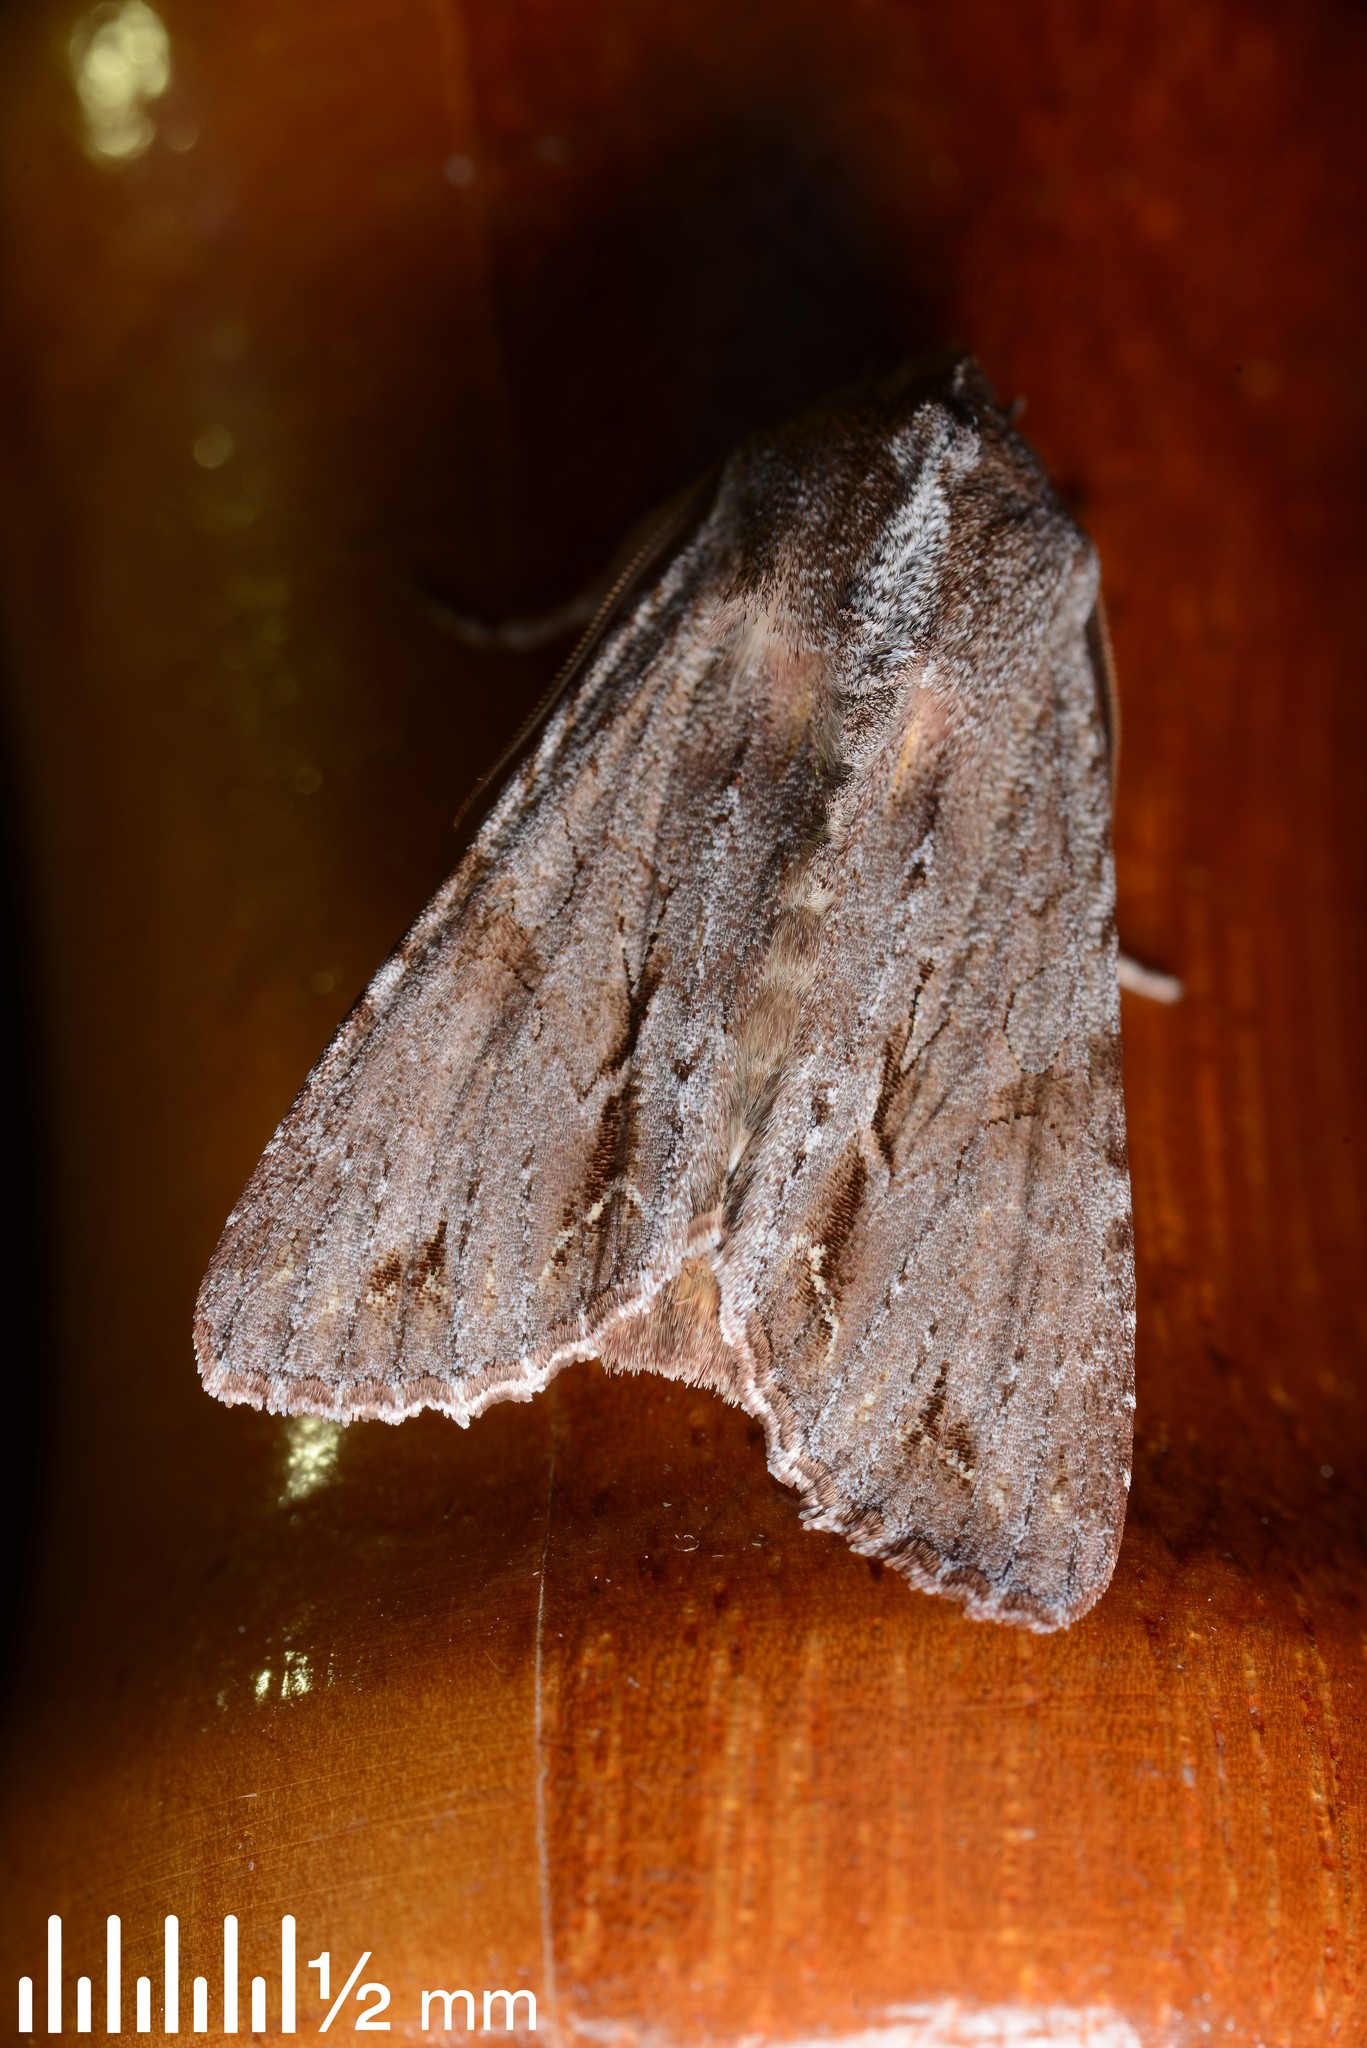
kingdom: Animalia
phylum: Arthropoda
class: Insecta
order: Lepidoptera
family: Noctuidae
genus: Ichneutica
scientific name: Ichneutica
